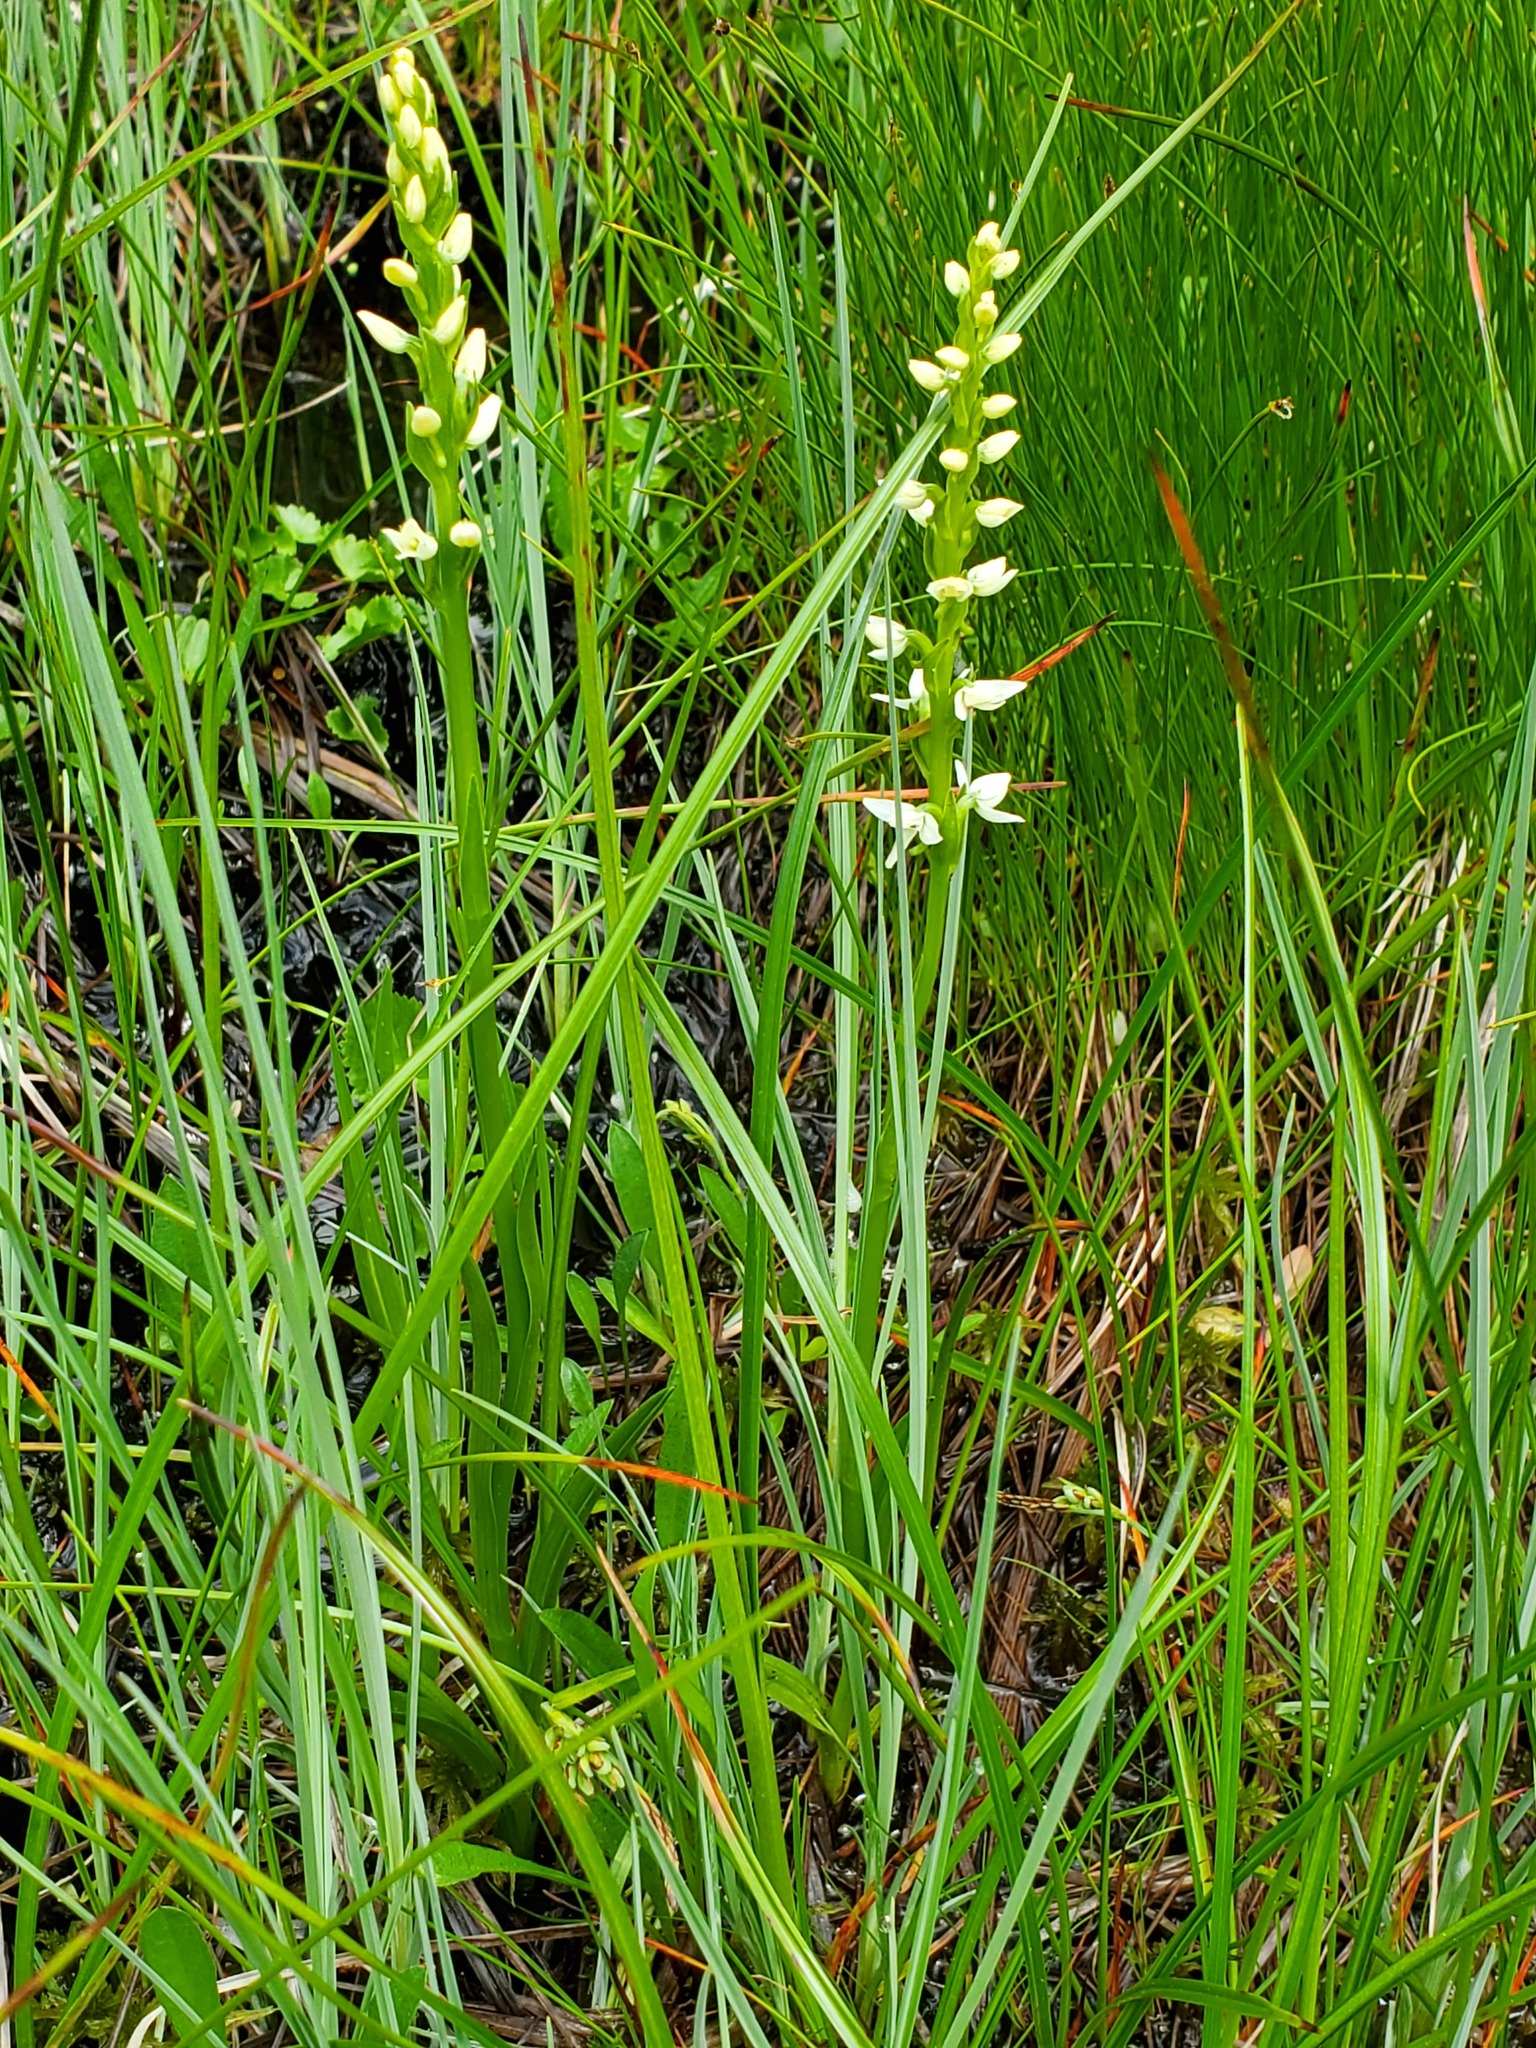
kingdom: Plantae
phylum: Tracheophyta
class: Liliopsida
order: Asparagales
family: Orchidaceae
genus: Platanthera
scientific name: Platanthera dilatata
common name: Bog candles
